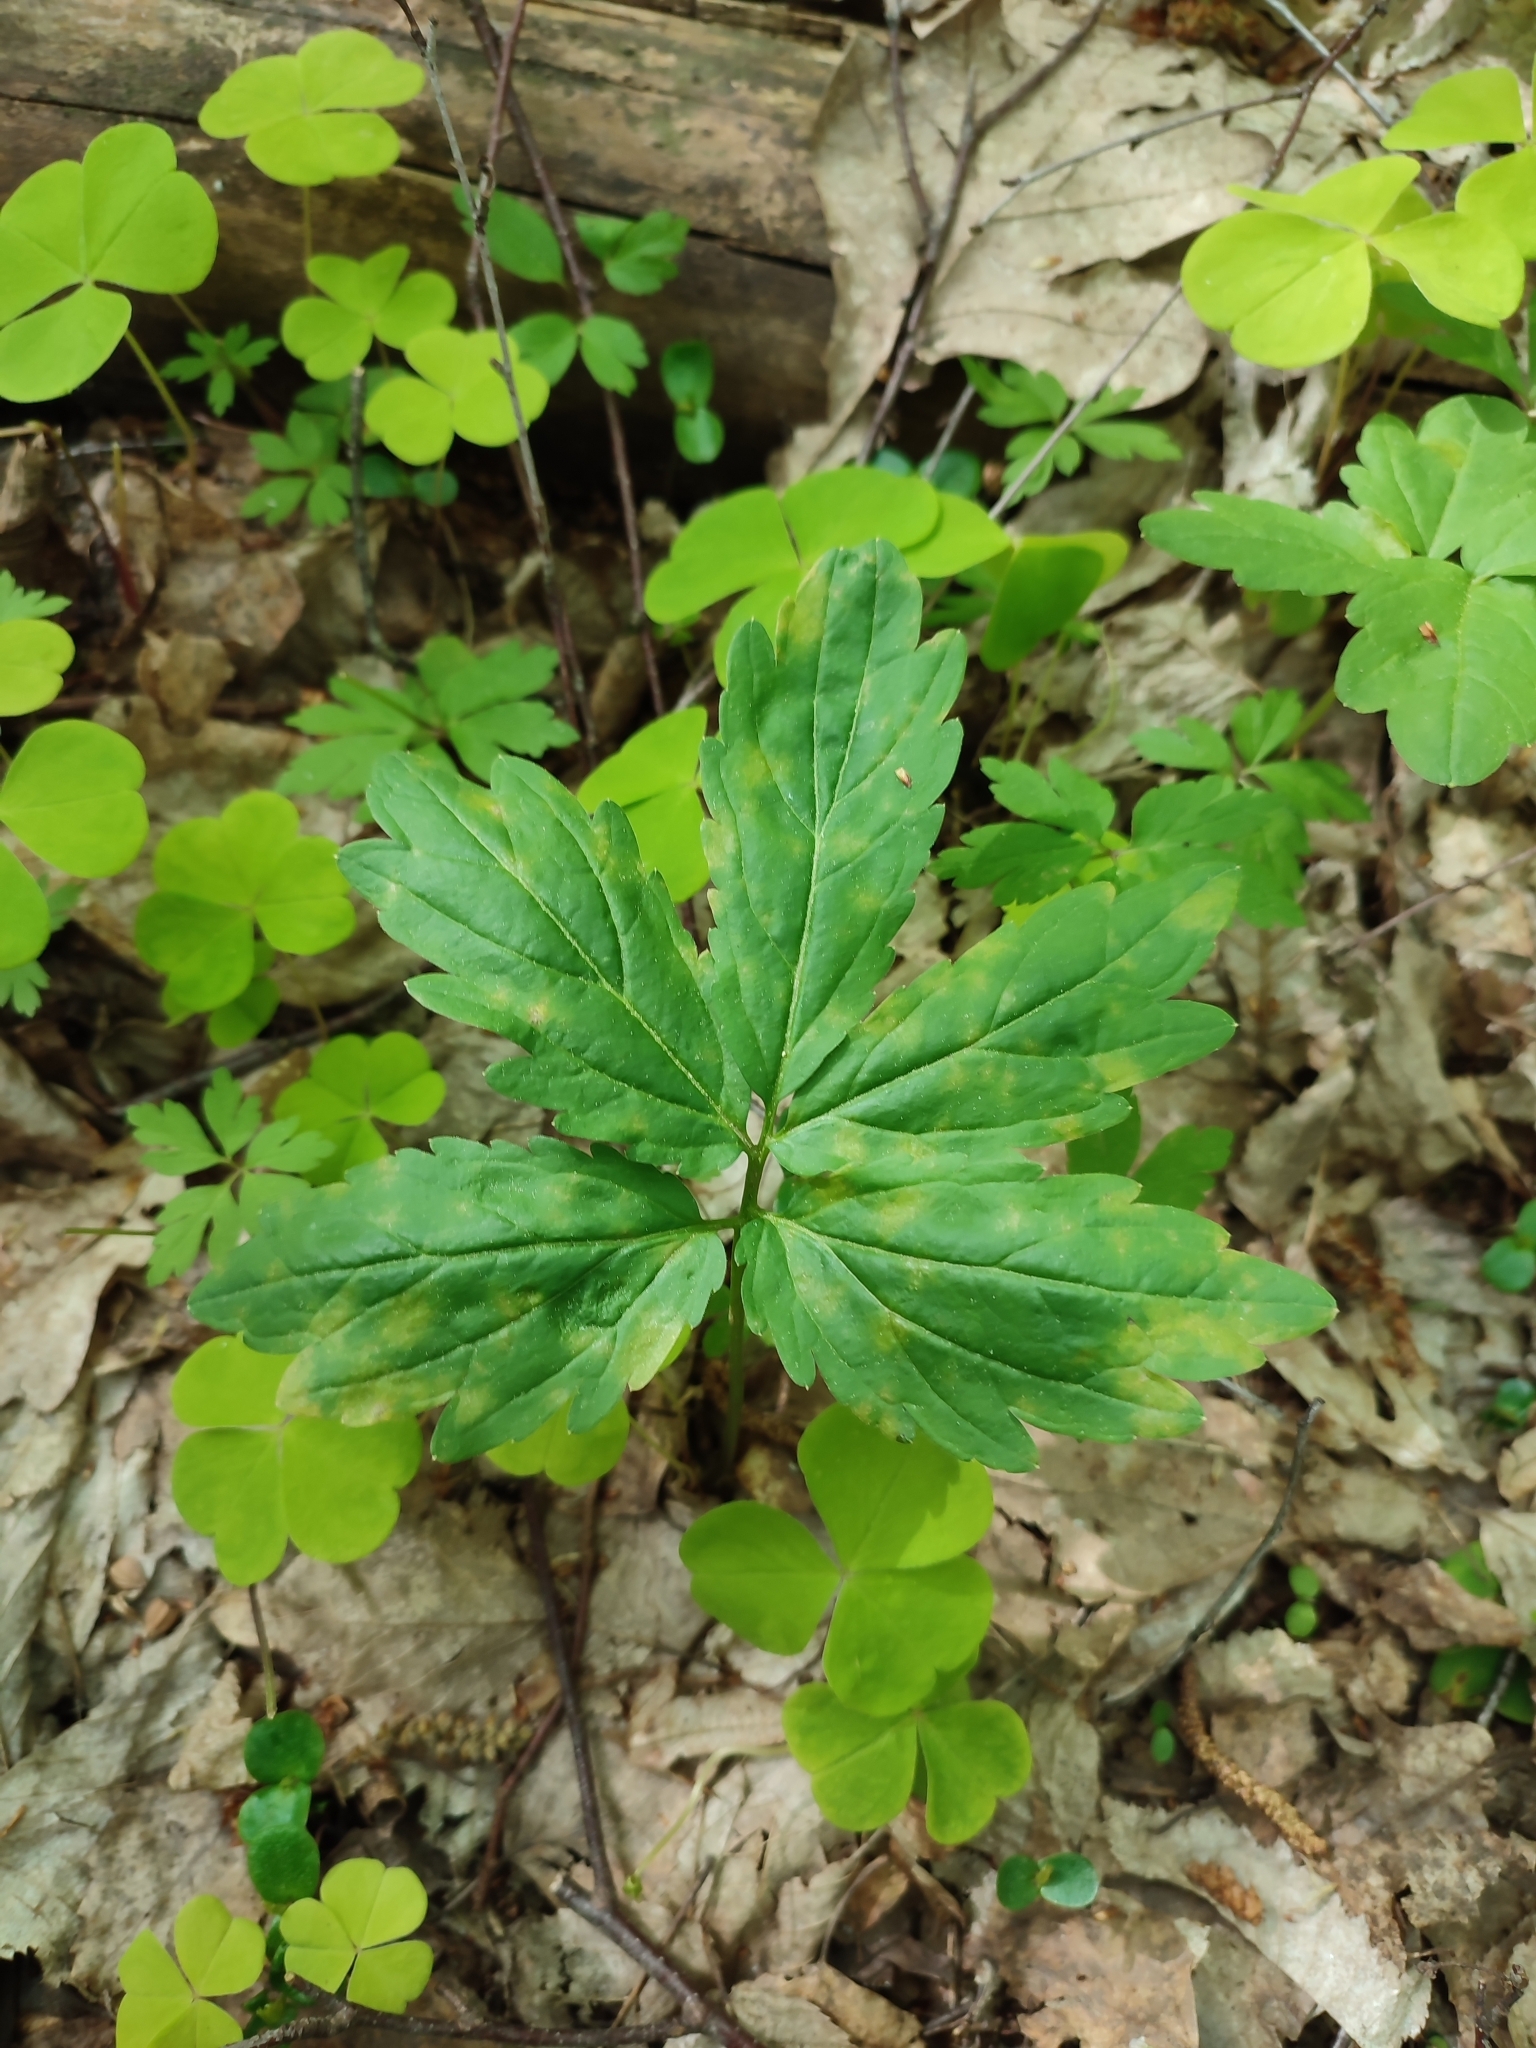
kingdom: Plantae
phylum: Tracheophyta
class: Magnoliopsida
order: Brassicales
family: Brassicaceae
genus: Cardamine
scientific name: Cardamine bulbifera
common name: Coralroot bittercress
